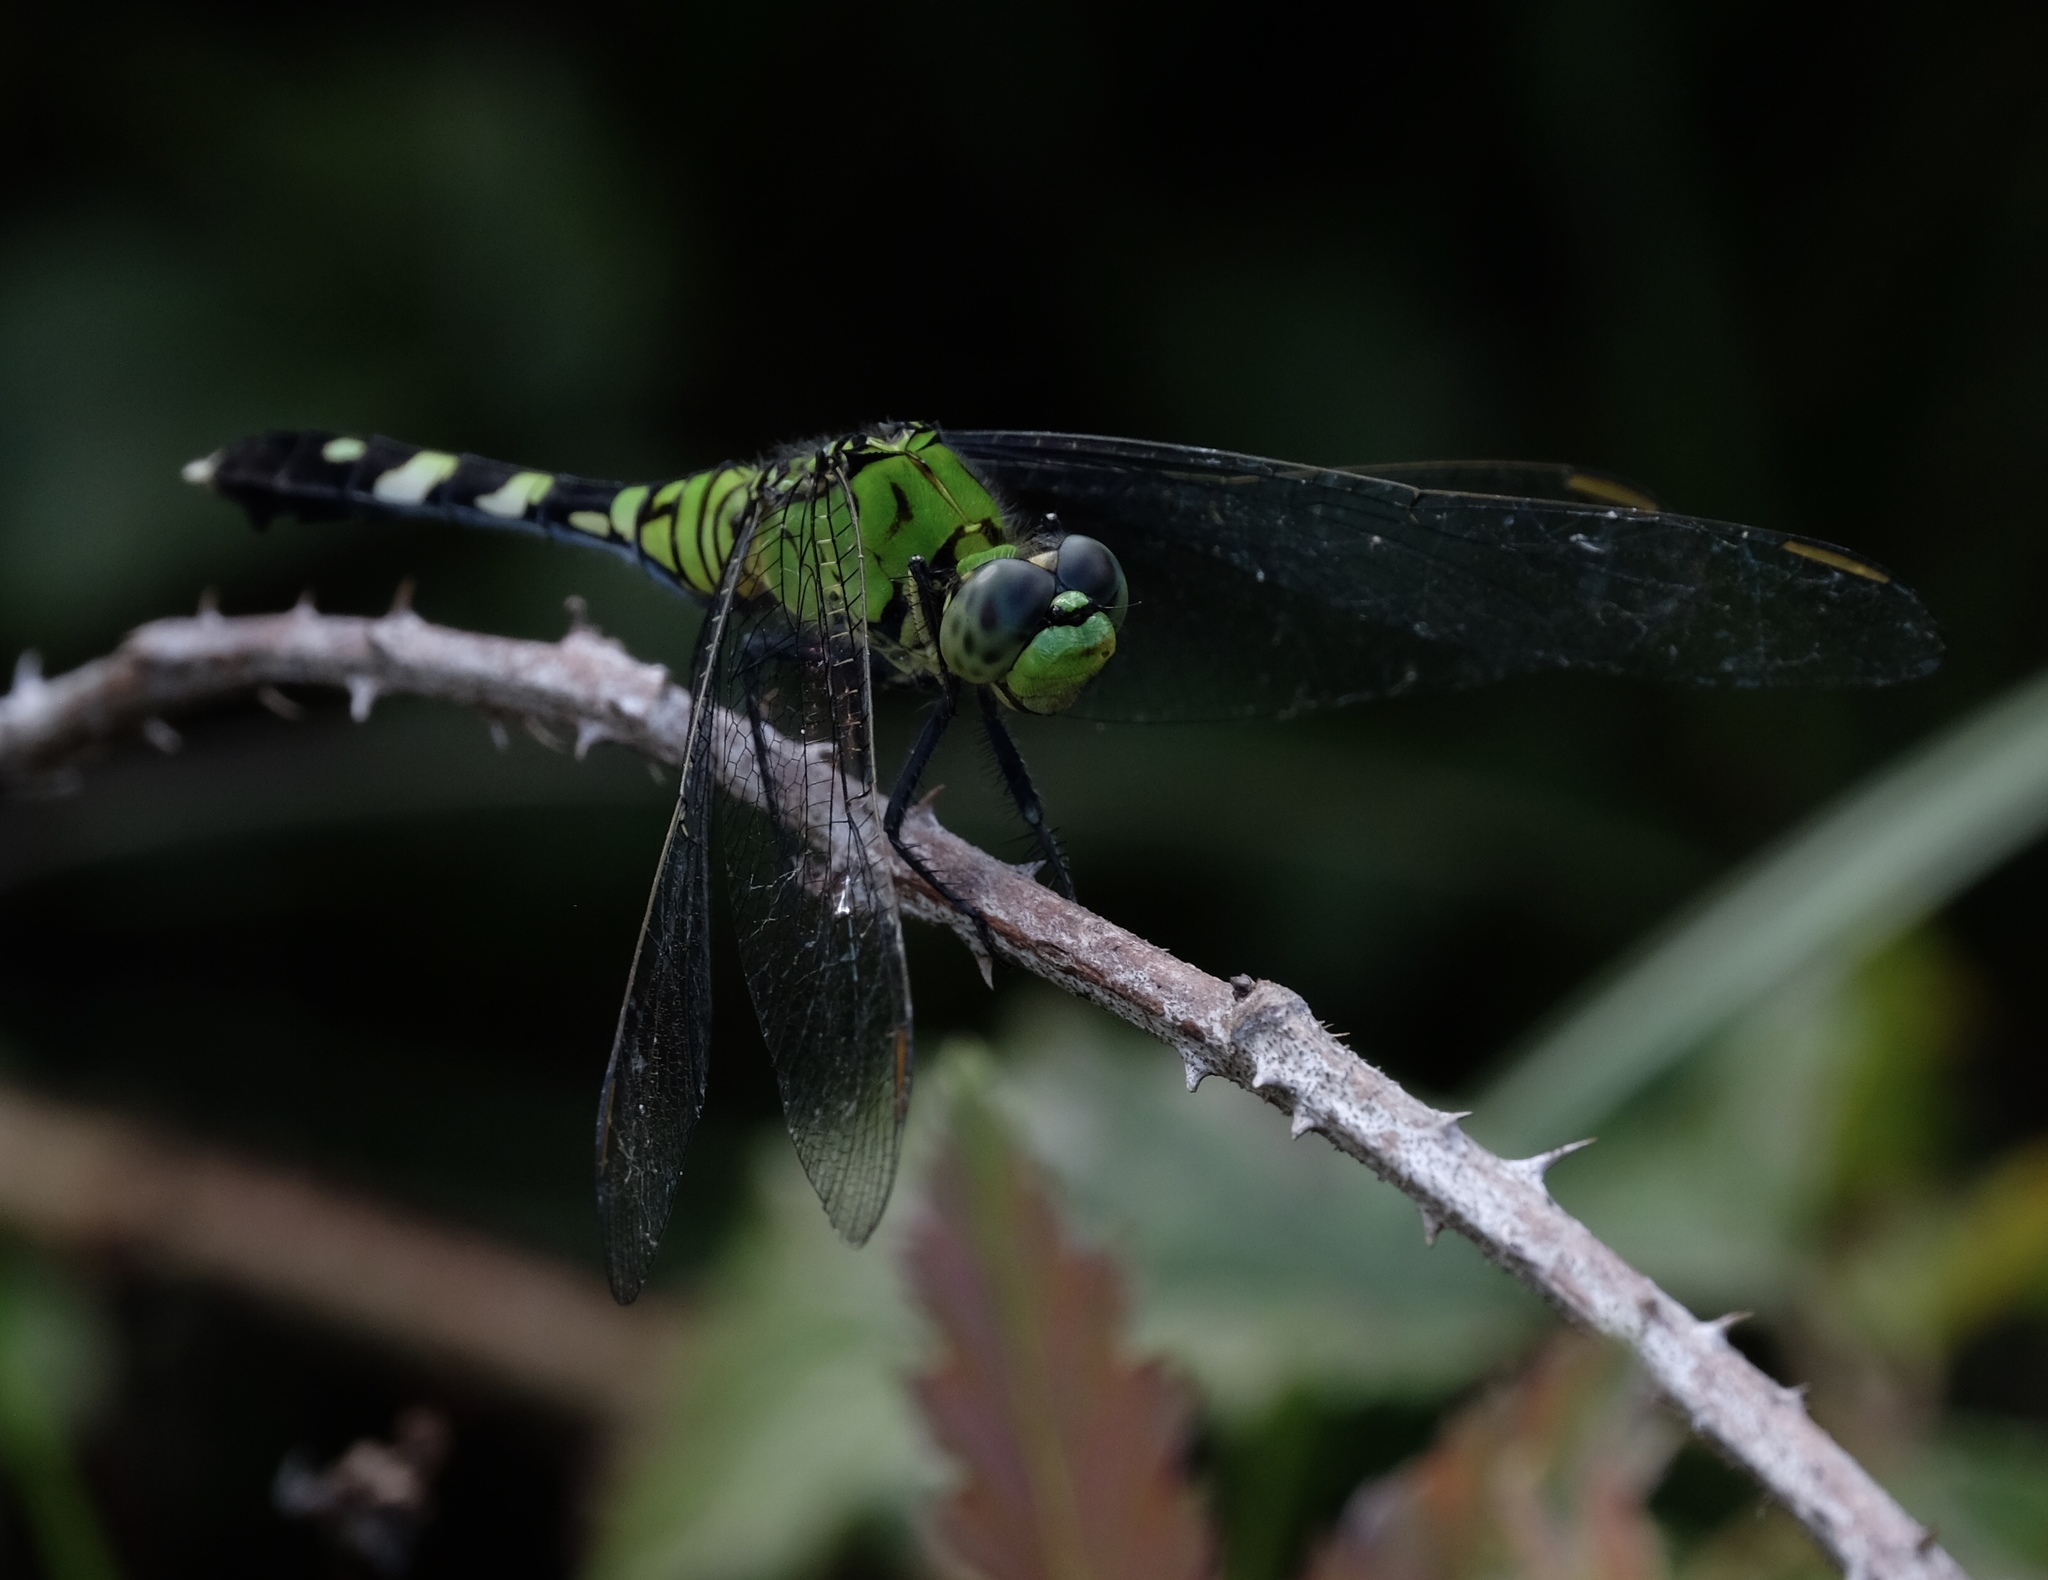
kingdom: Animalia
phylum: Arthropoda
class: Insecta
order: Odonata
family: Libellulidae
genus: Erythemis
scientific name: Erythemis simplicicollis
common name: Eastern pondhawk
